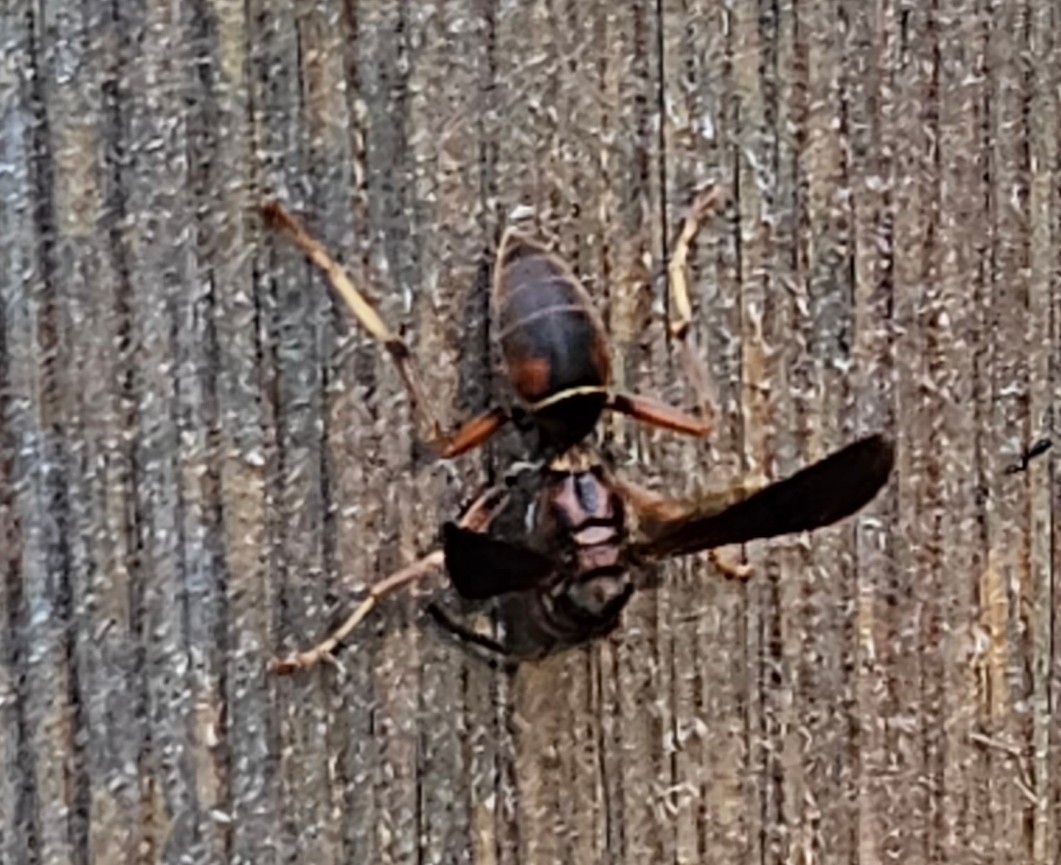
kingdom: Animalia
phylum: Arthropoda
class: Insecta
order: Hymenoptera
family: Eumenidae
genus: Polistes
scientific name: Polistes fuscatus
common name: Dark paper wasp
